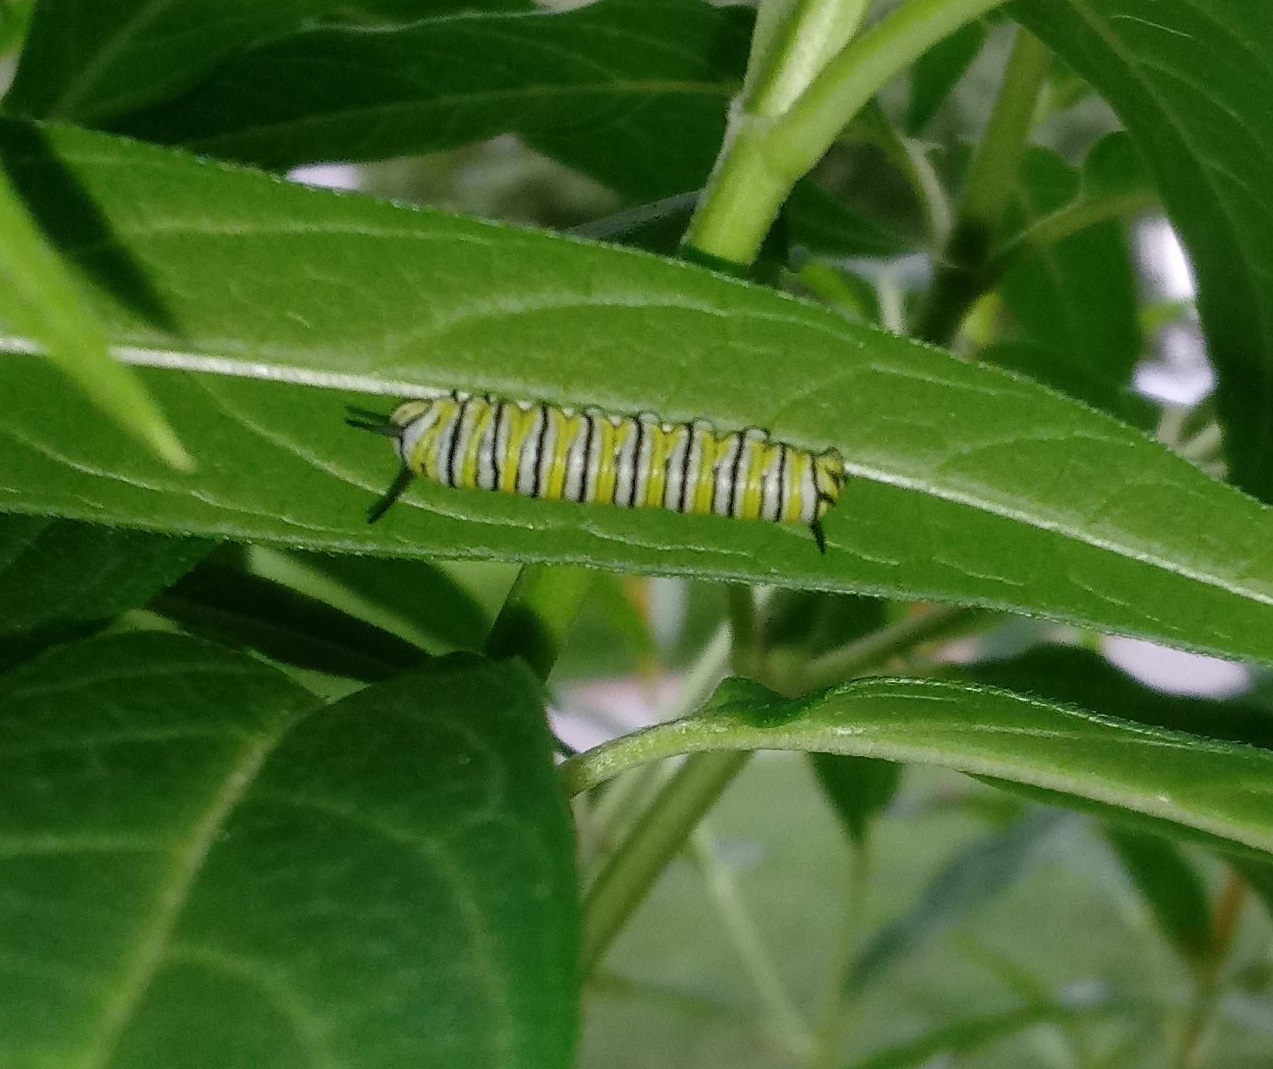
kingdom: Animalia
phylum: Arthropoda
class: Insecta
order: Lepidoptera
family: Nymphalidae
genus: Danaus
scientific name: Danaus plexippus
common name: Monarch
